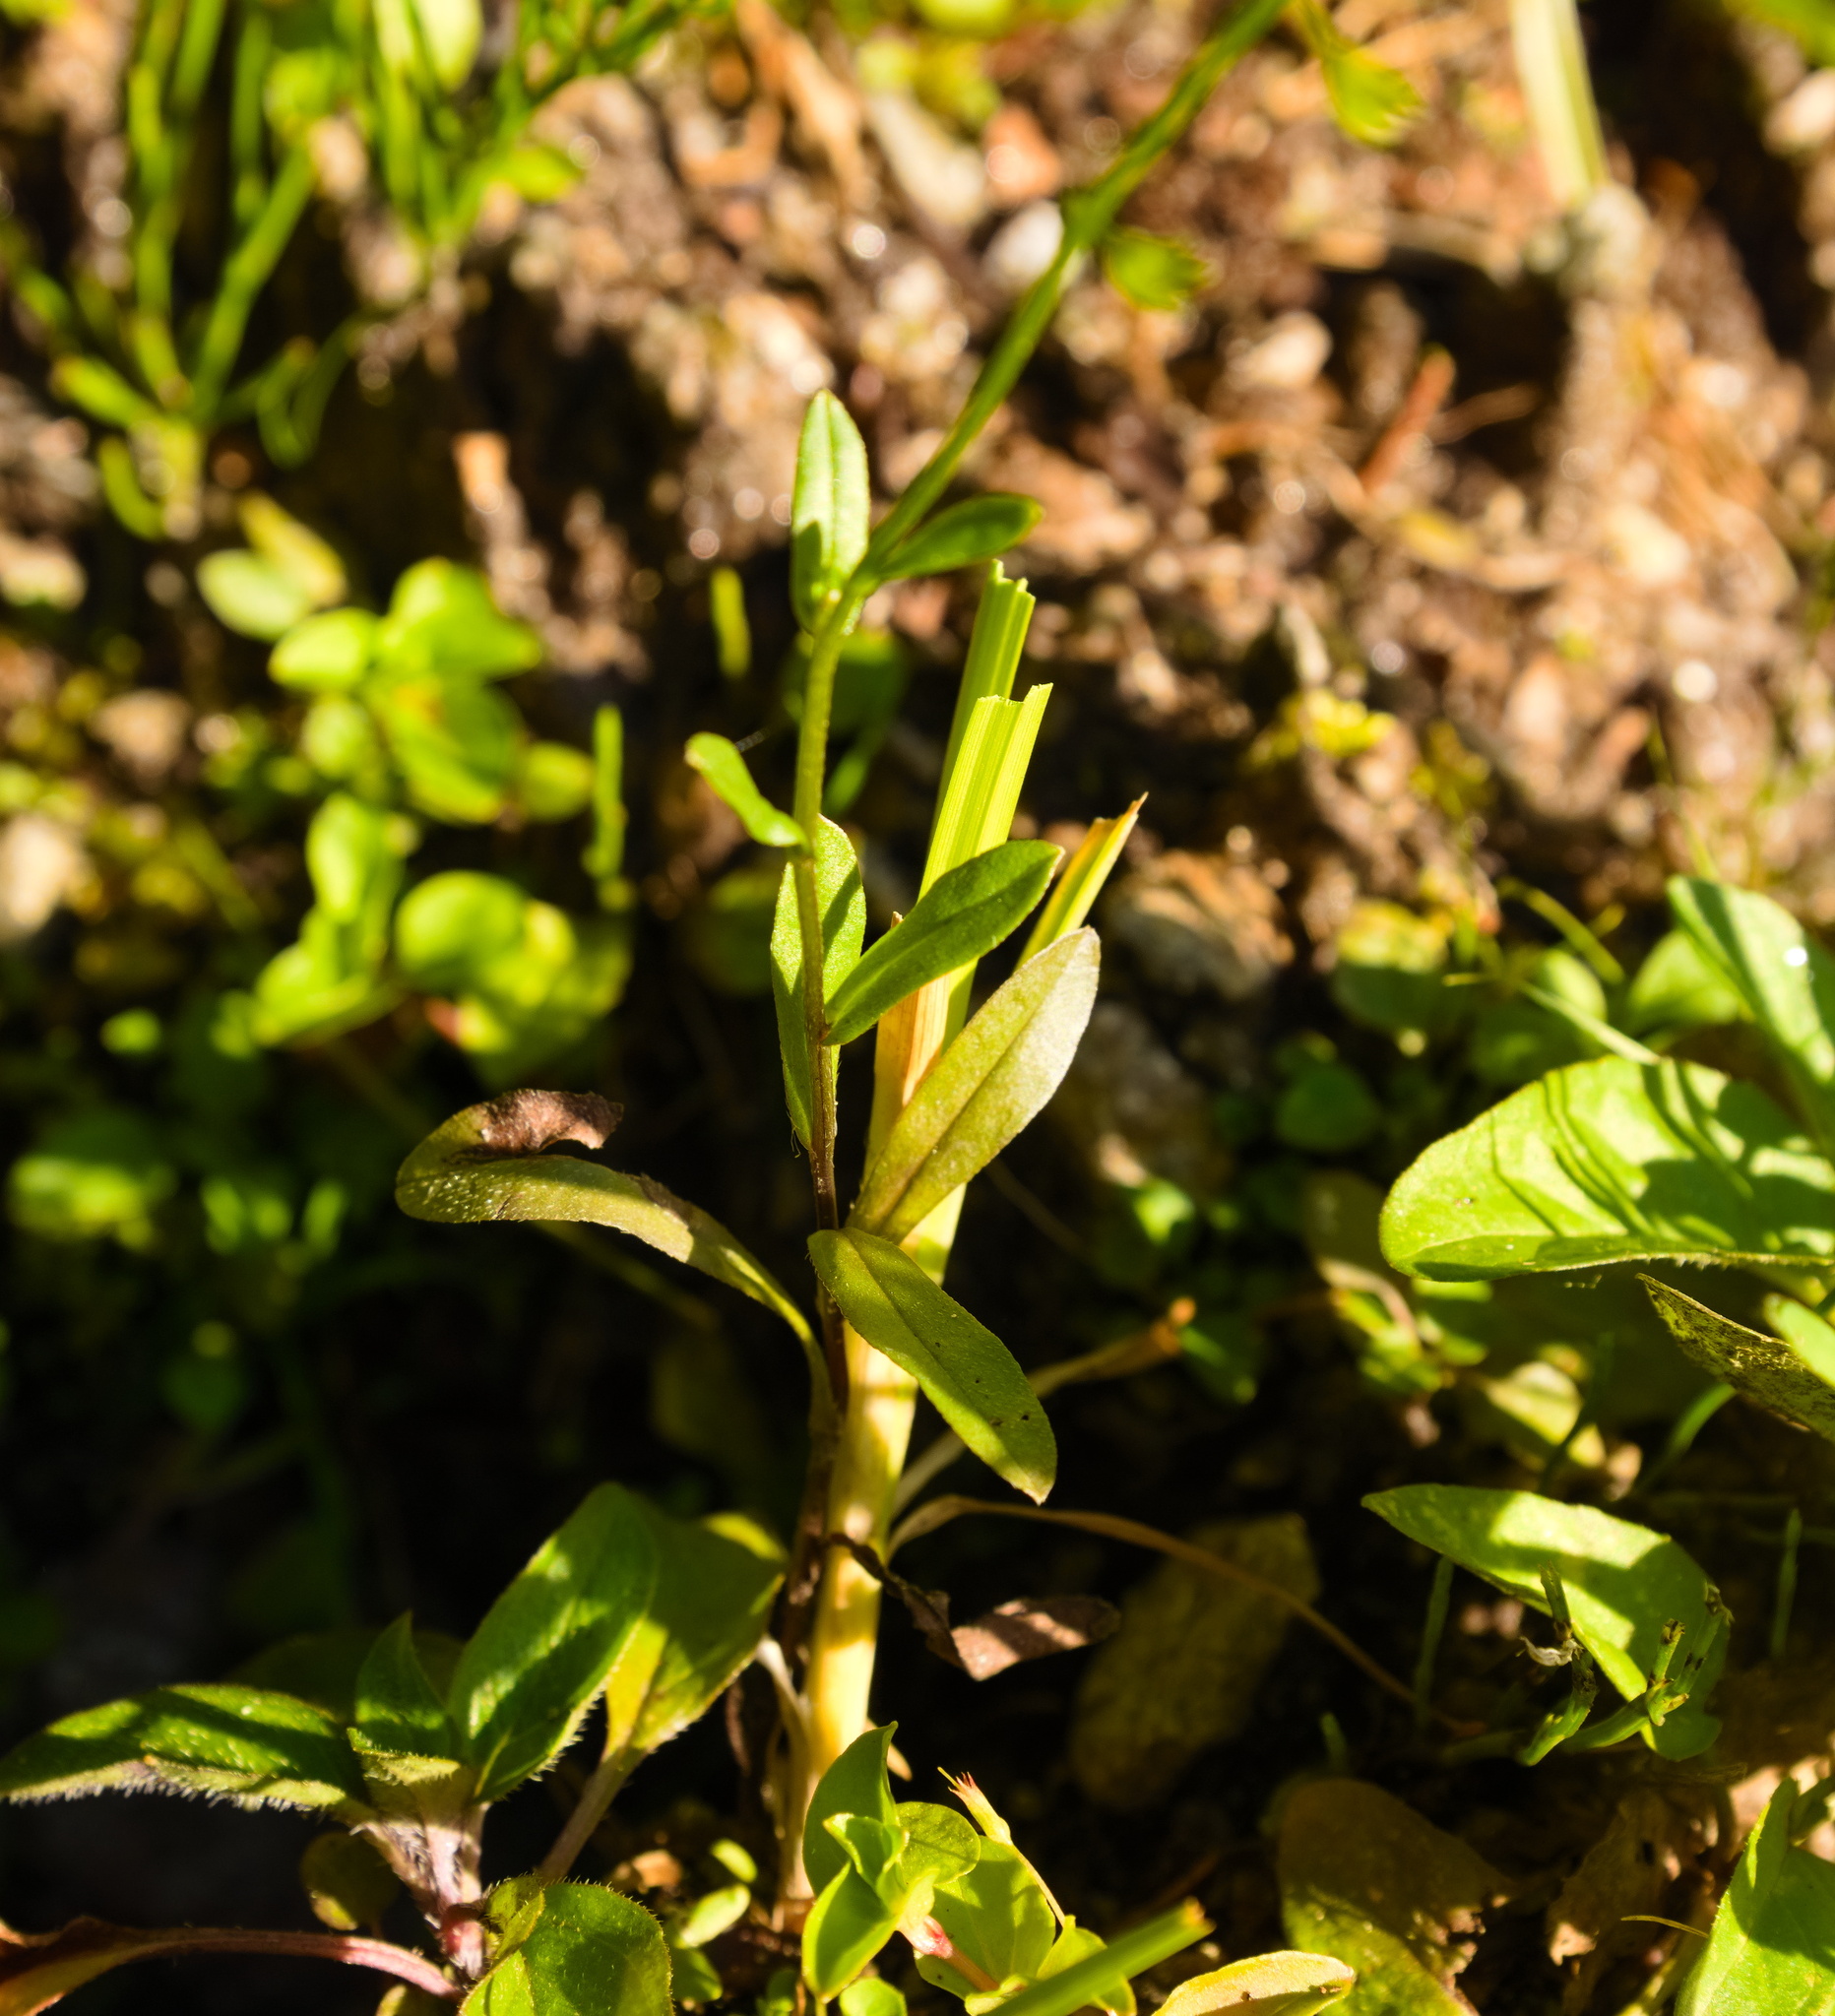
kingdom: Plantae
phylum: Tracheophyta
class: Magnoliopsida
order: Boraginales
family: Boraginaceae
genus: Myosotis
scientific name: Myosotis arvensis
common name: Field forget-me-not
